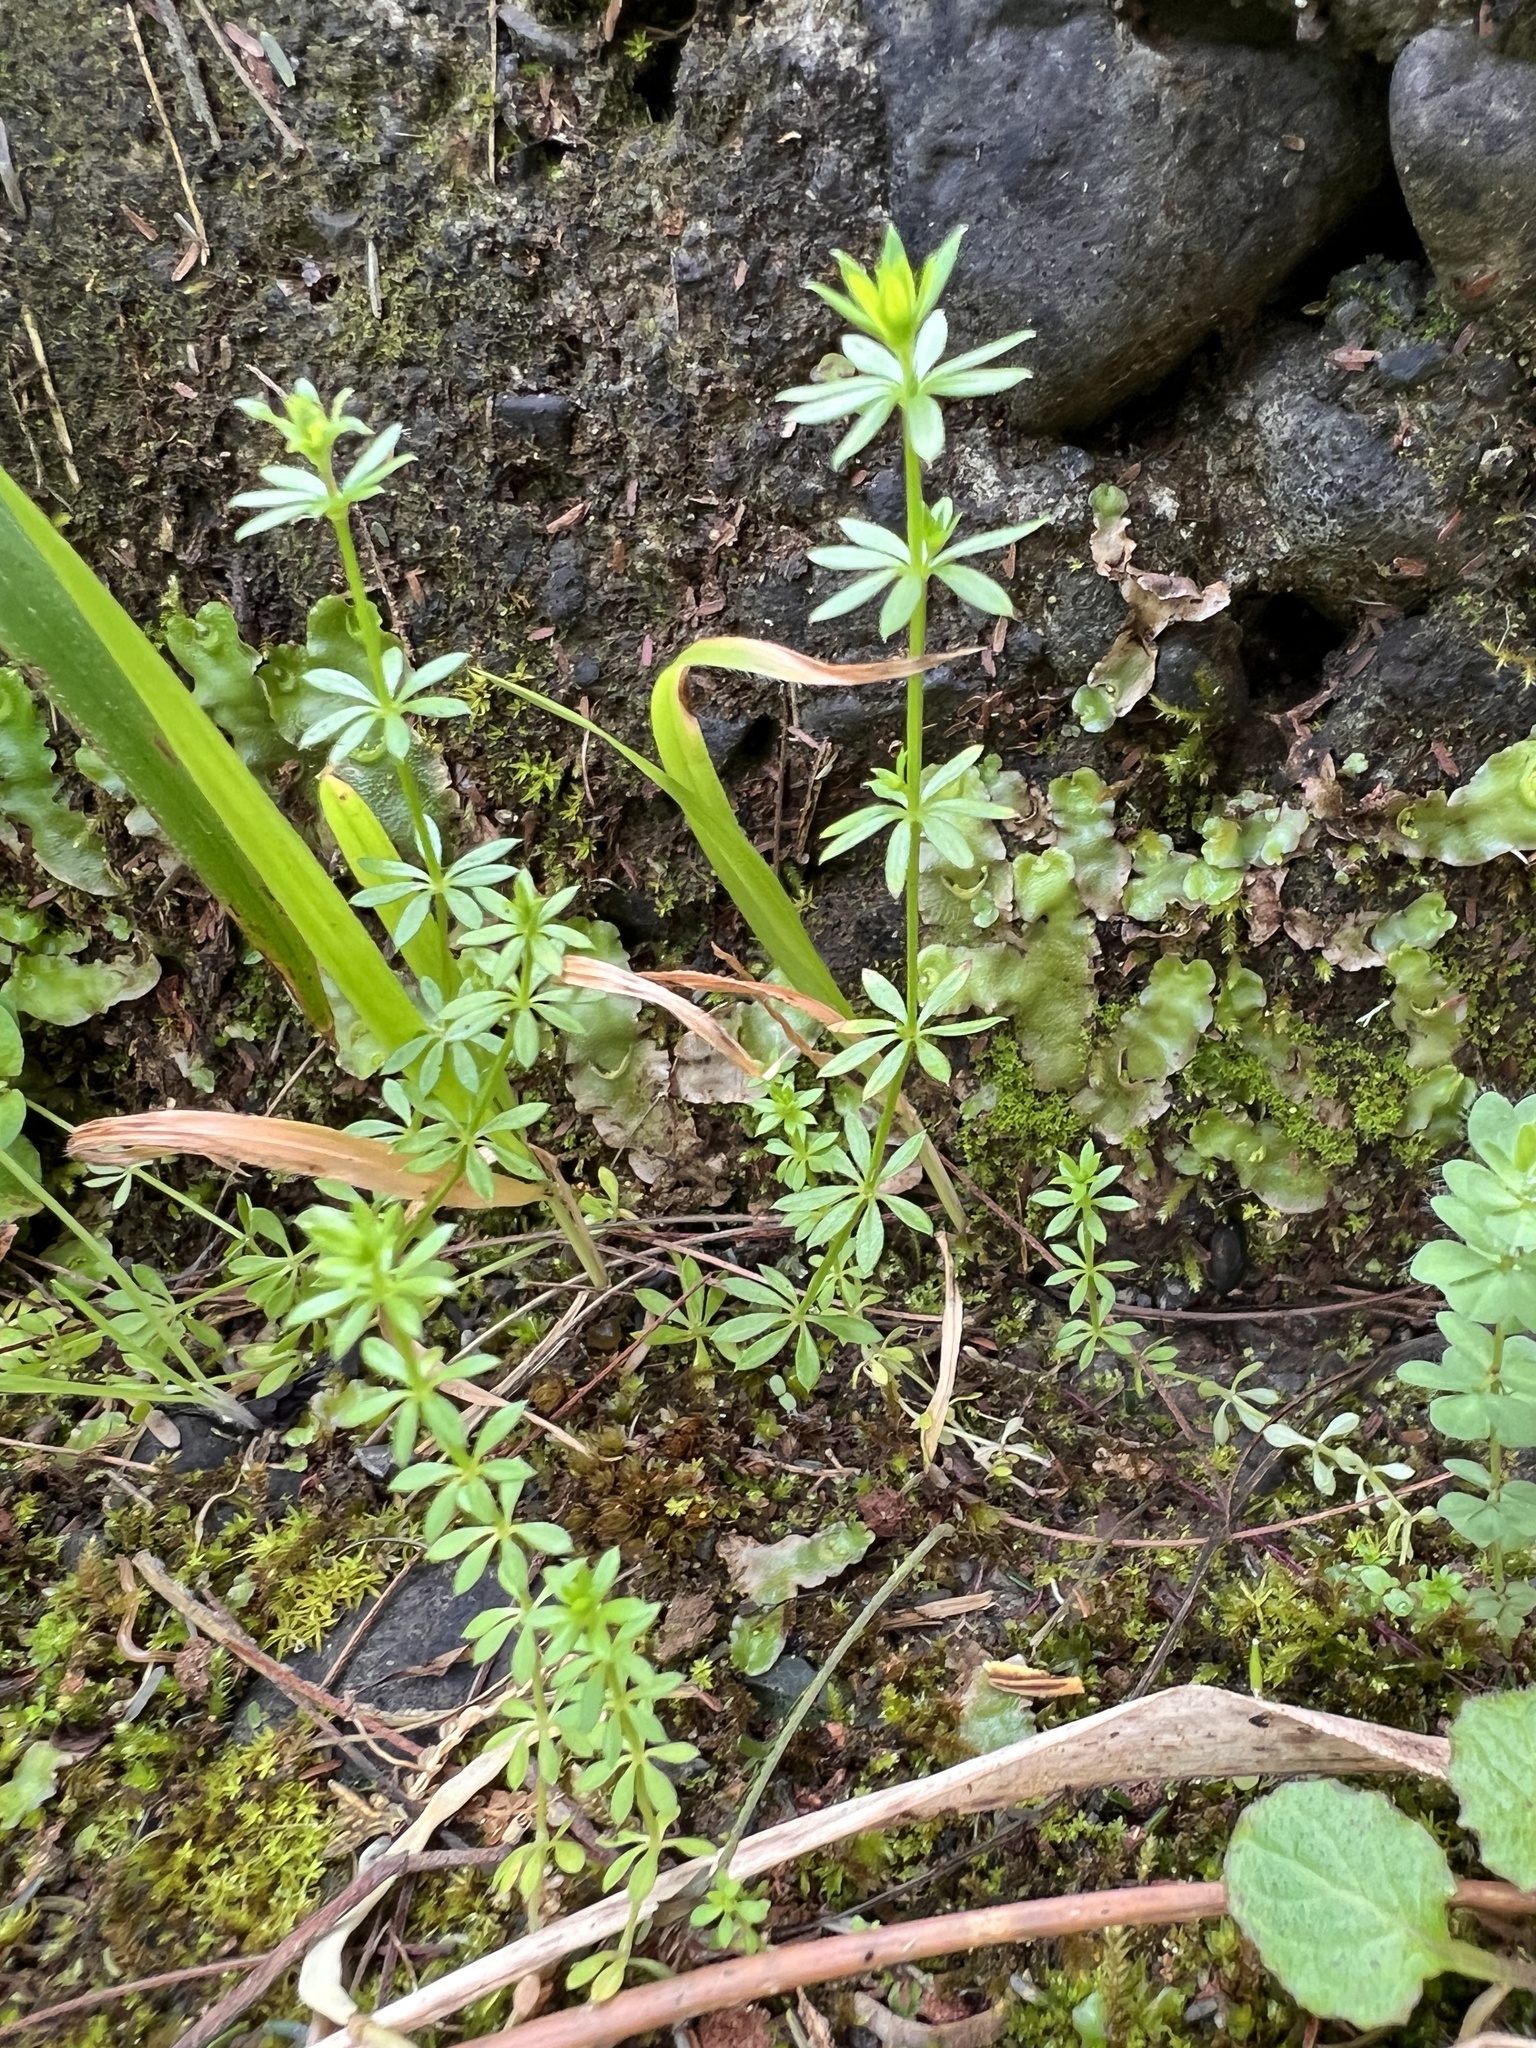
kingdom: Plantae
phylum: Tracheophyta
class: Magnoliopsida
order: Gentianales
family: Rubiaceae
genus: Galium
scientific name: Galium aparine
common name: Cleavers
